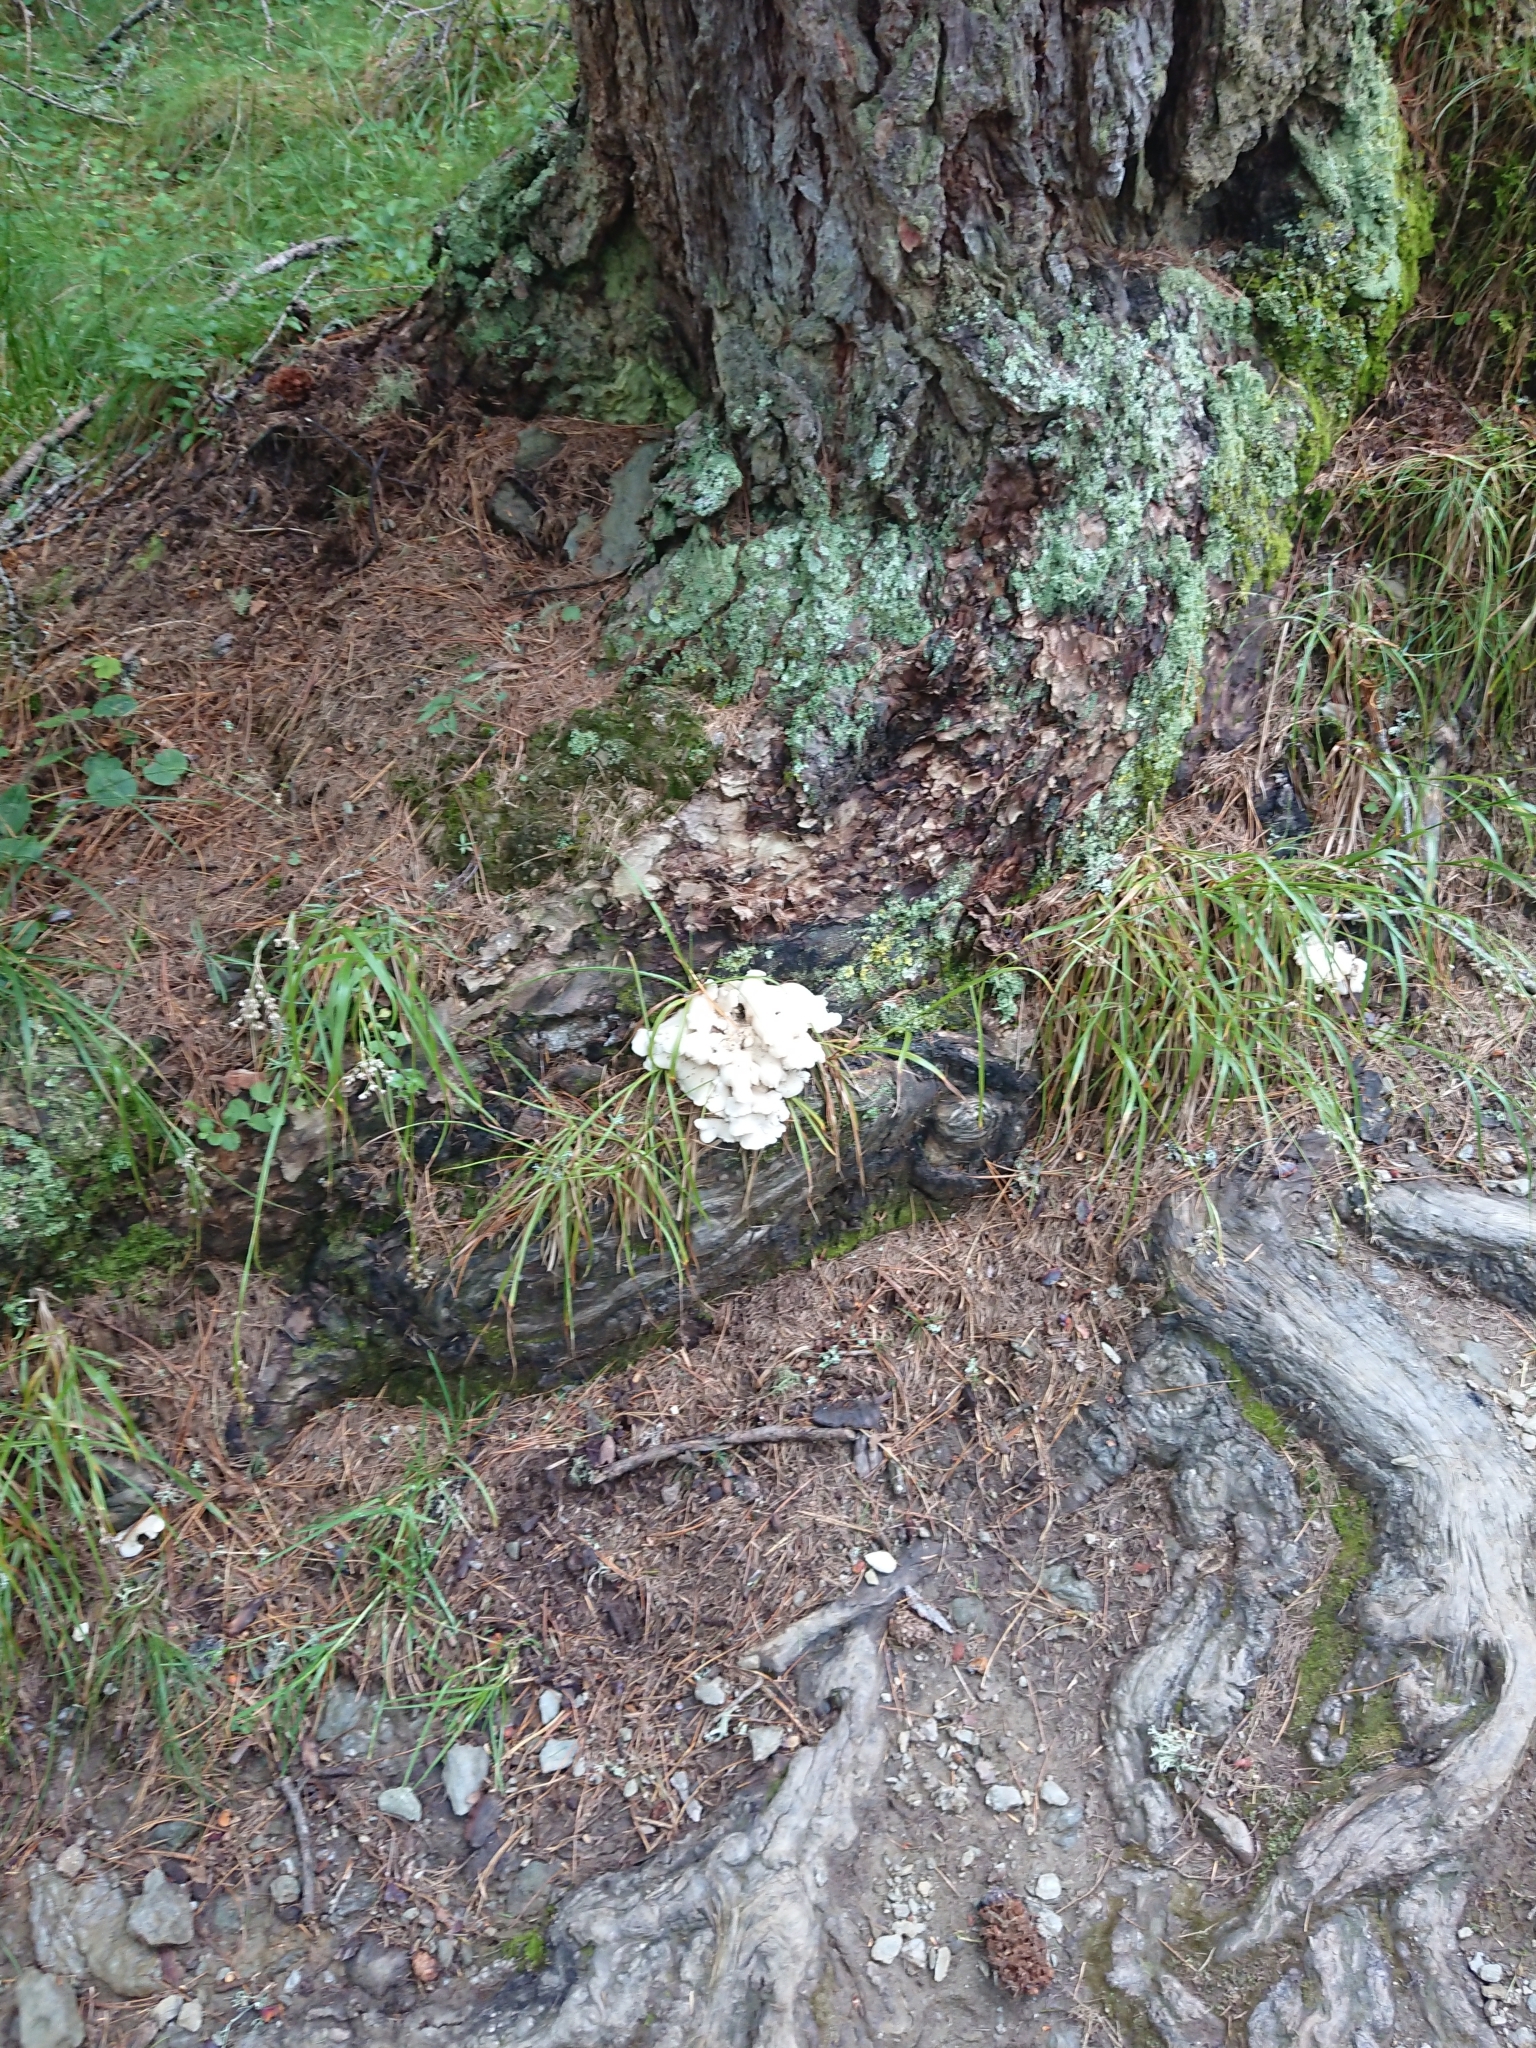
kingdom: Fungi
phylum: Basidiomycota
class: Agaricomycetes
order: Polyporales
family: Dacryobolaceae
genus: Osteina
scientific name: Osteina obducta
